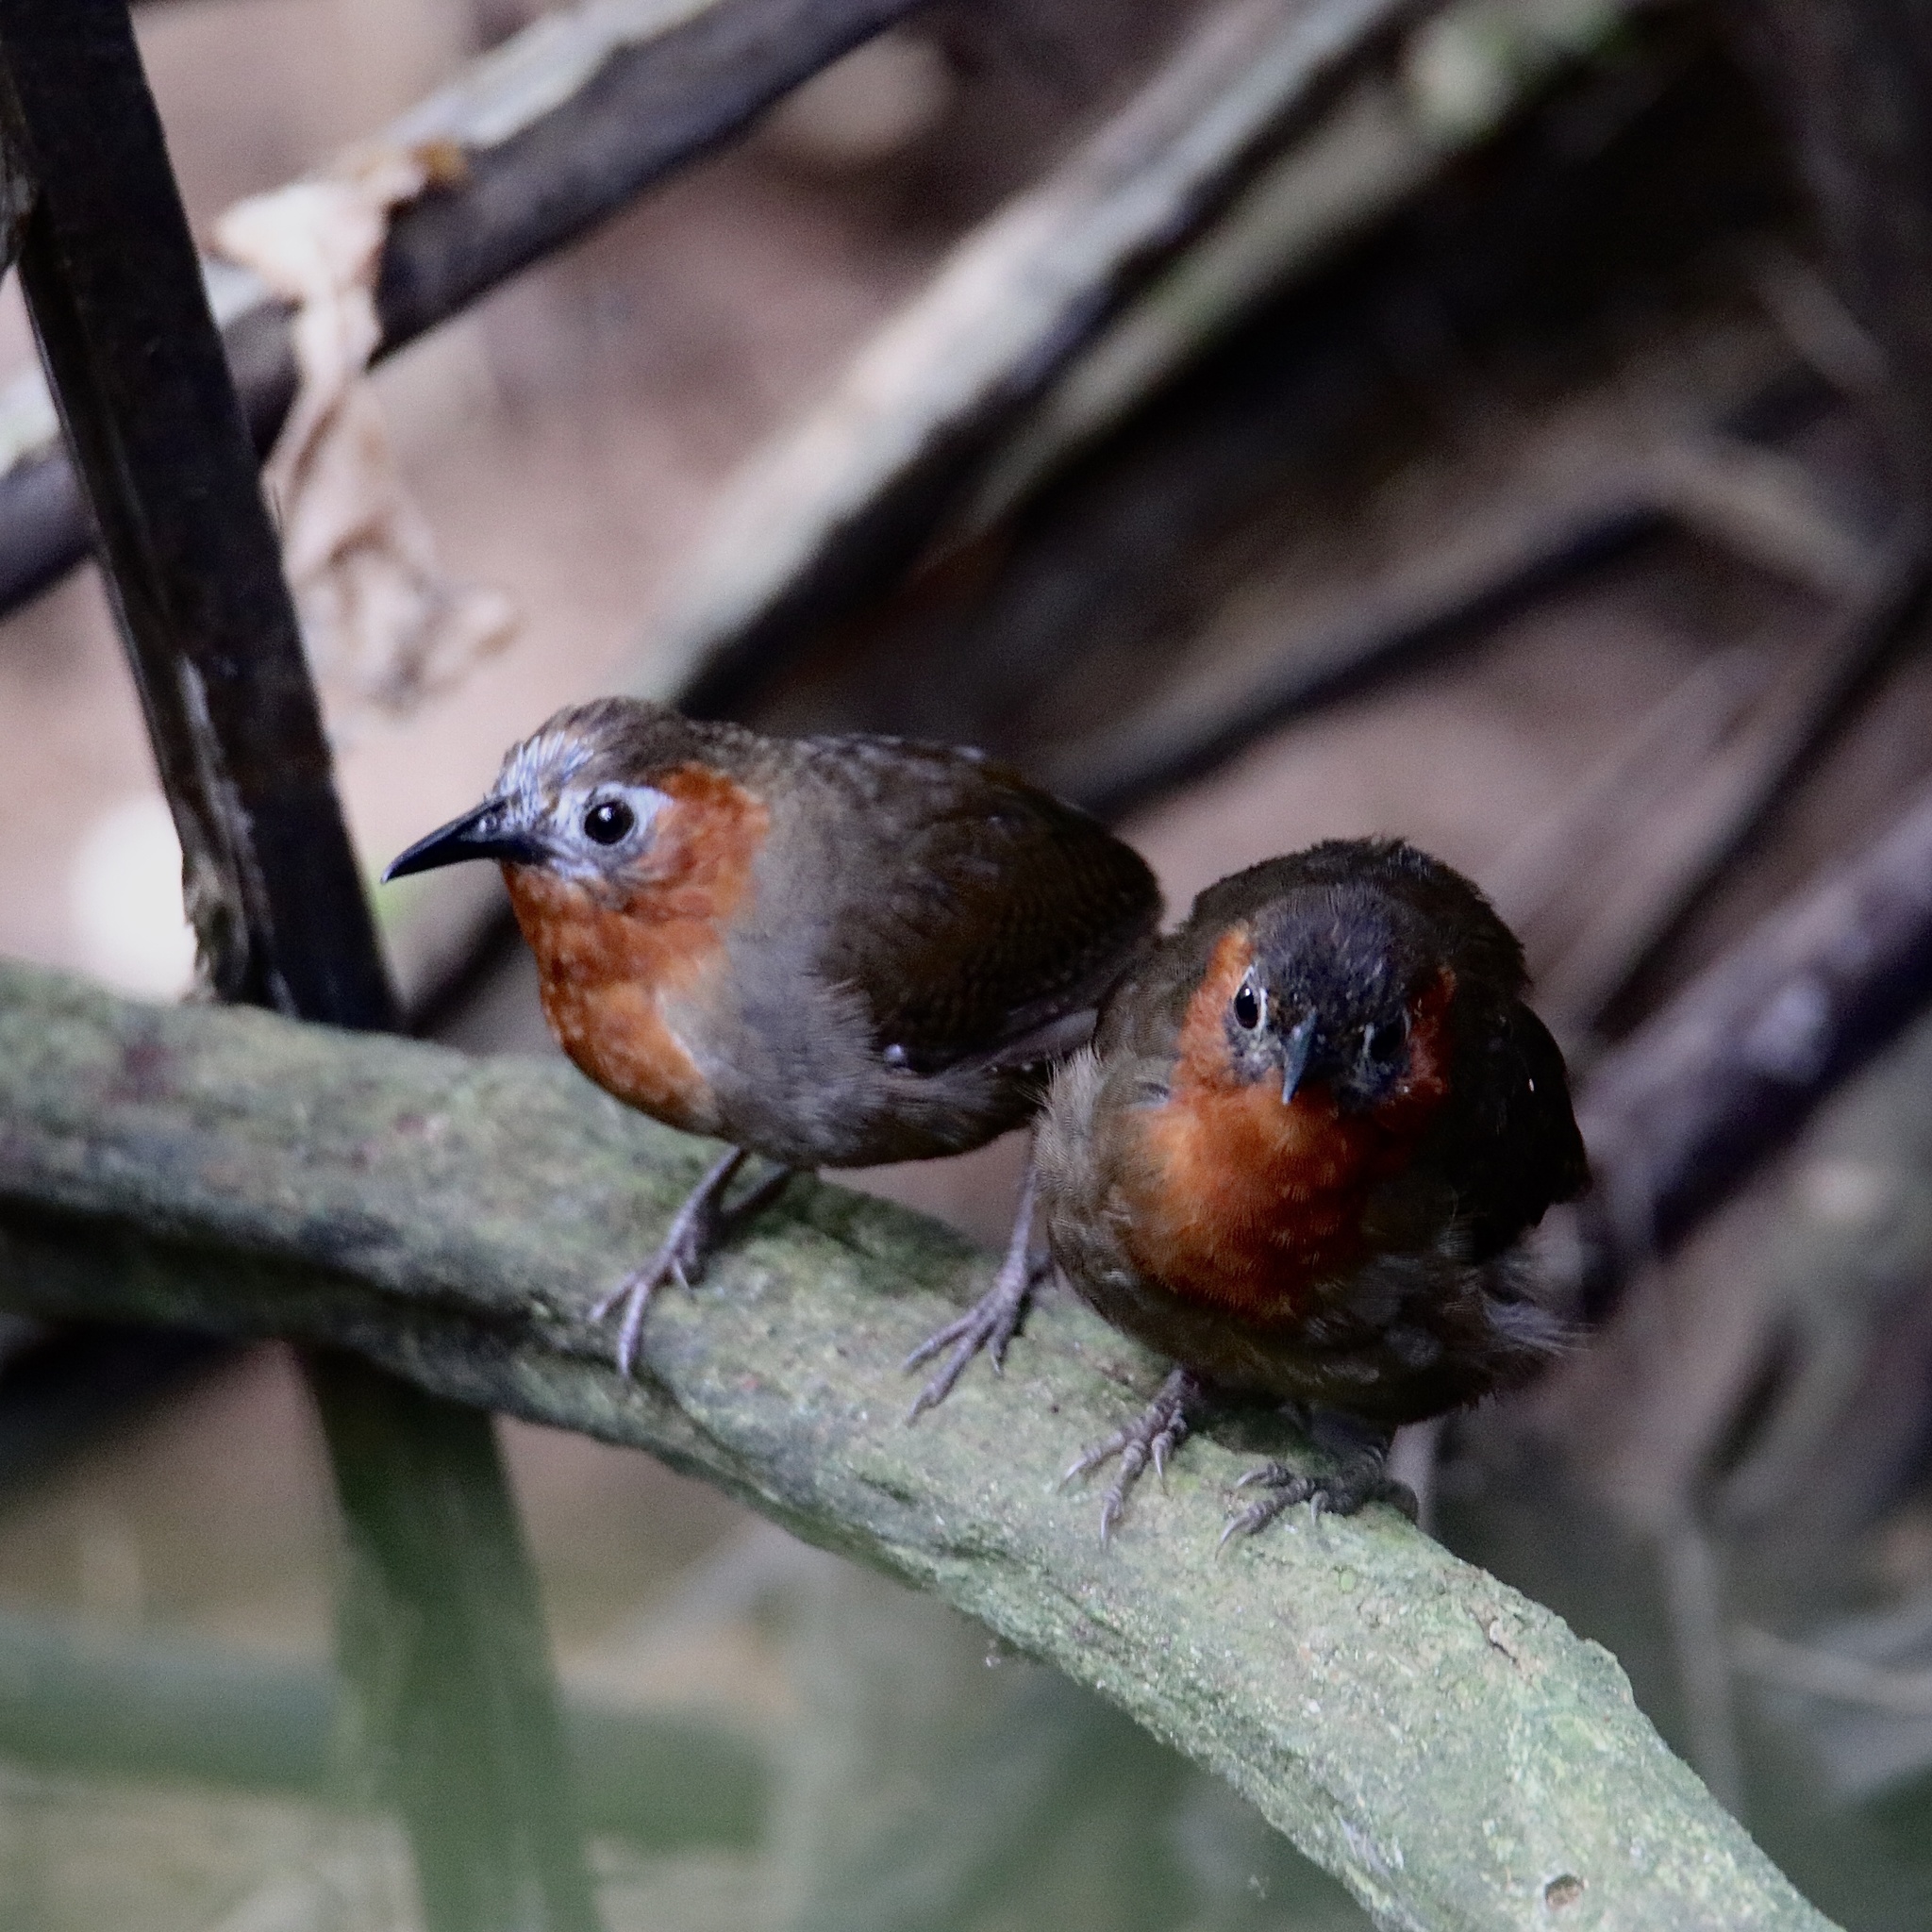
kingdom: Animalia
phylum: Chordata
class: Aves
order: Passeriformes
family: Troglodytidae
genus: Cyphorhinus
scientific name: Cyphorhinus phaeocephalus
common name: Song wren
